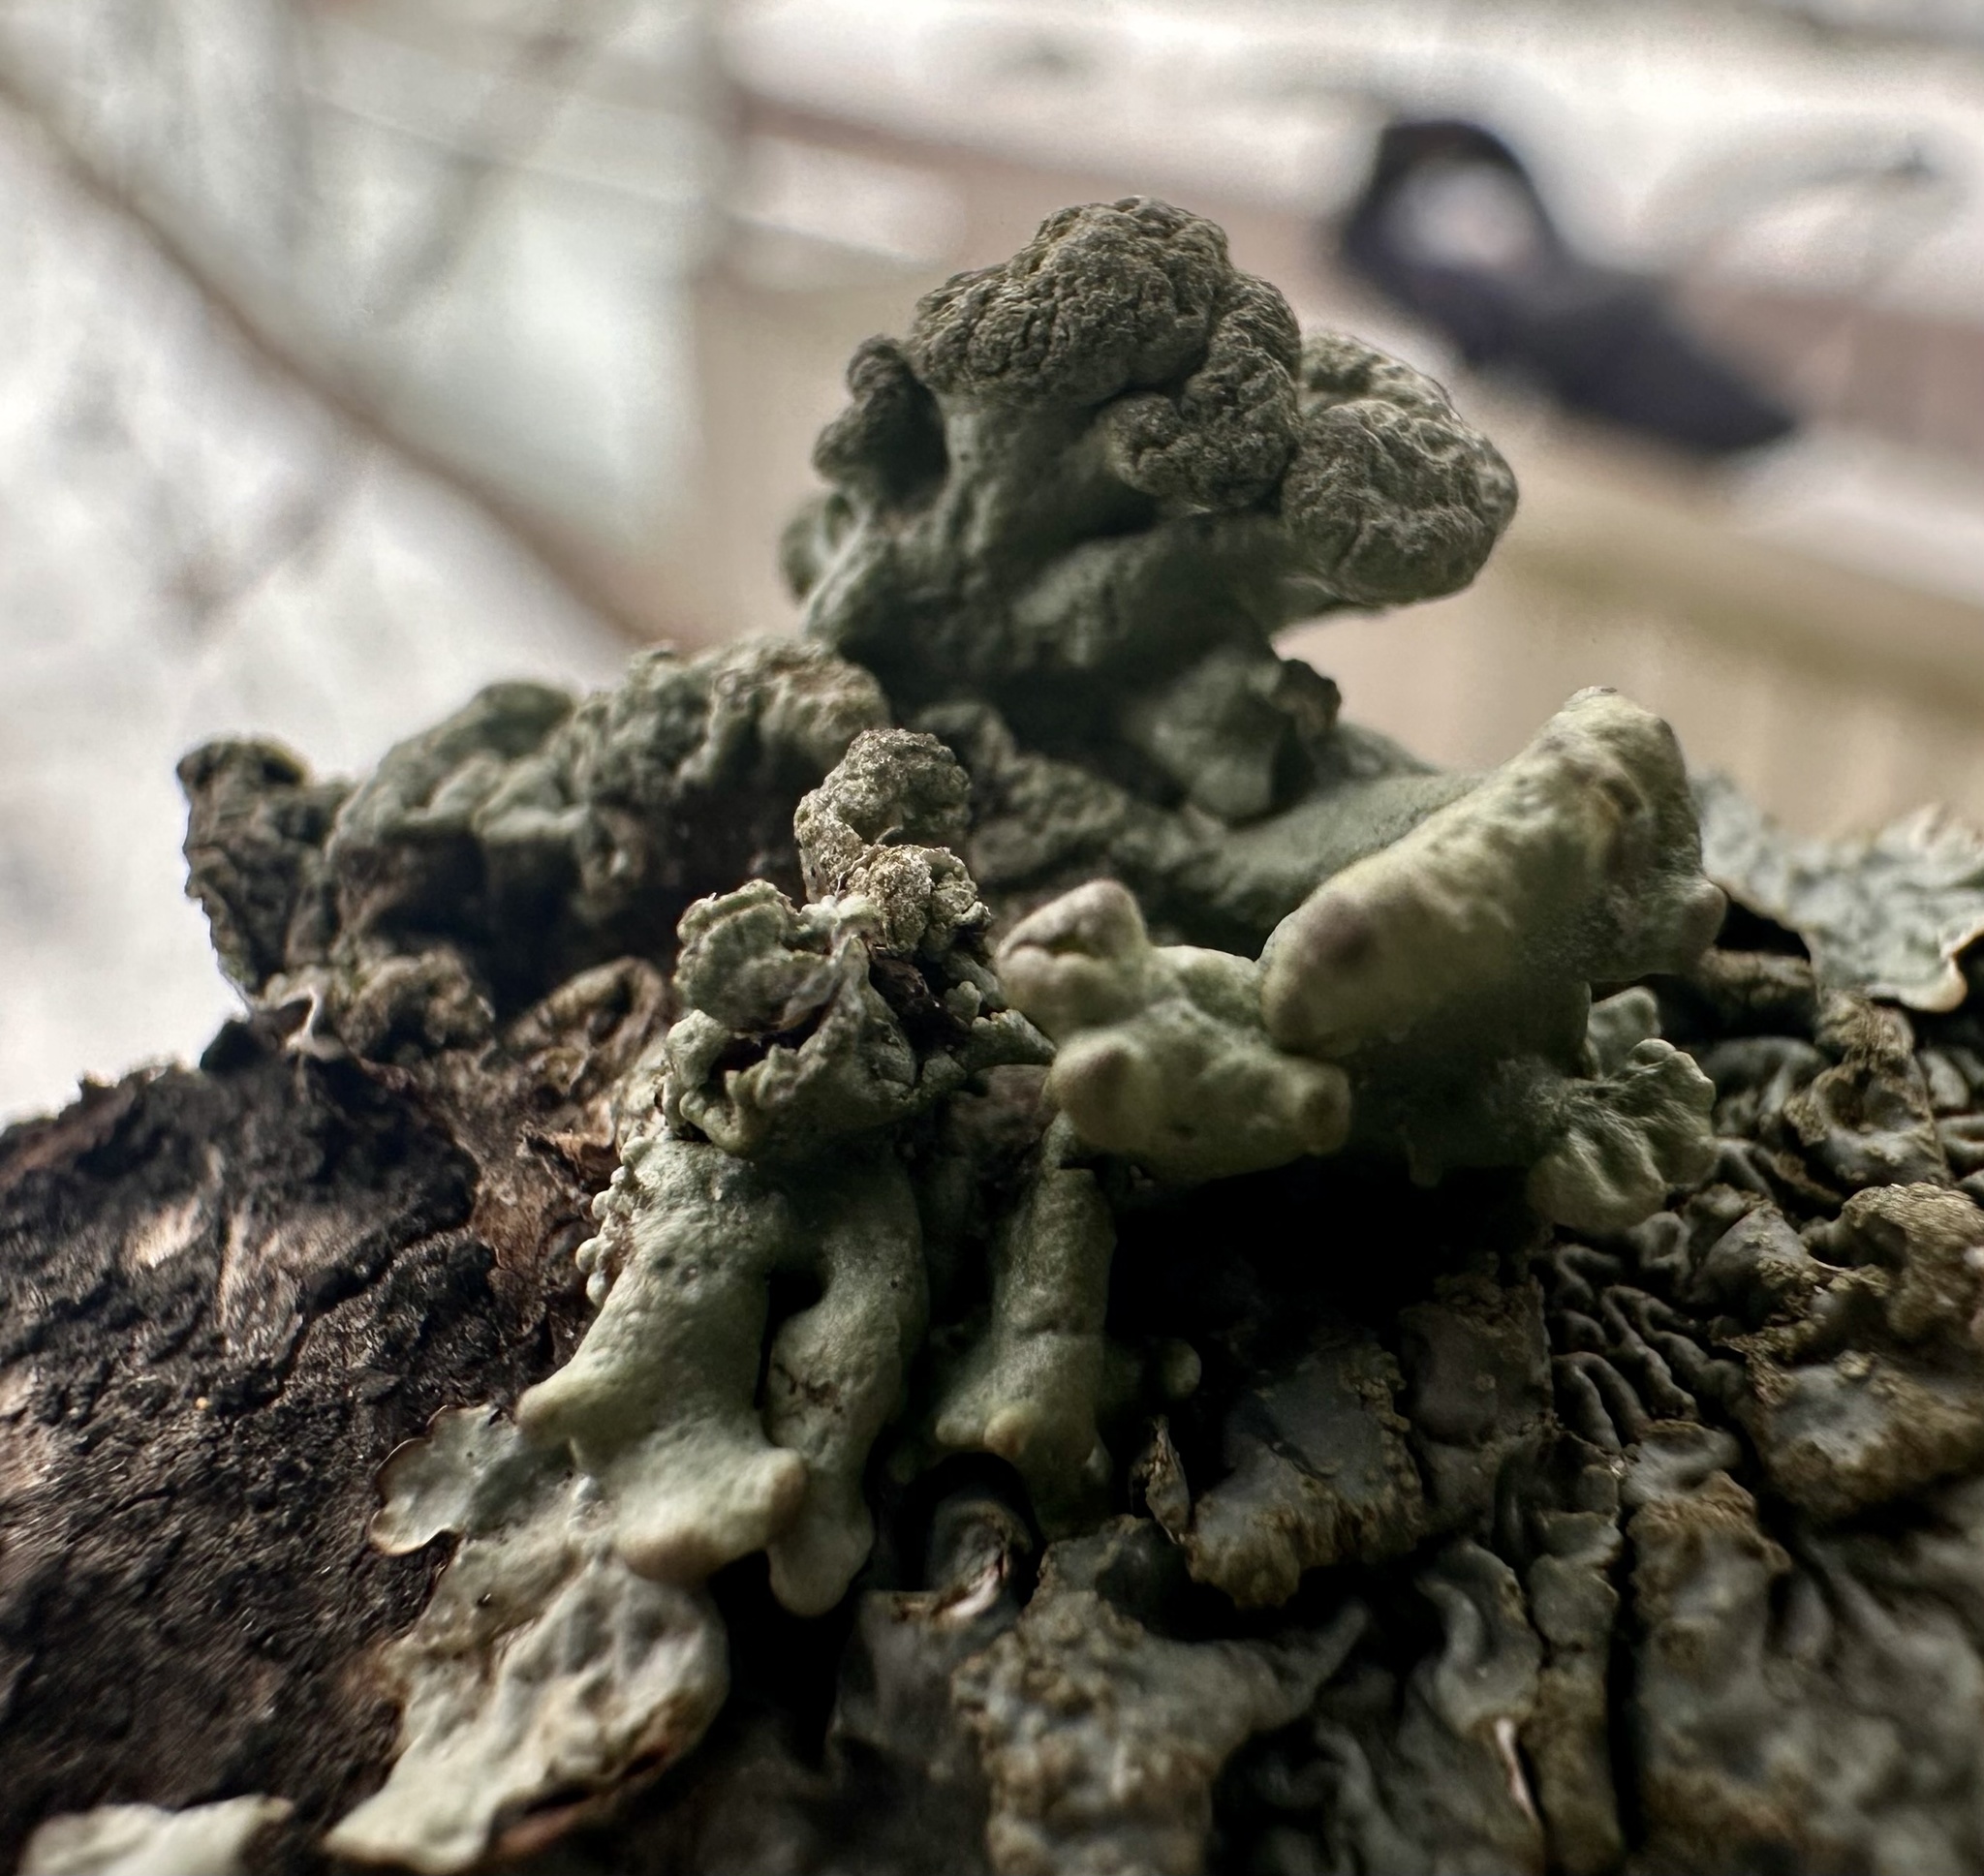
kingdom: Fungi
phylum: Ascomycota
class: Lecanoromycetes
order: Lecanorales
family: Parmeliaceae
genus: Hypogymnia
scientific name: Hypogymnia tubulosa
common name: Powder-headed tube lichen
